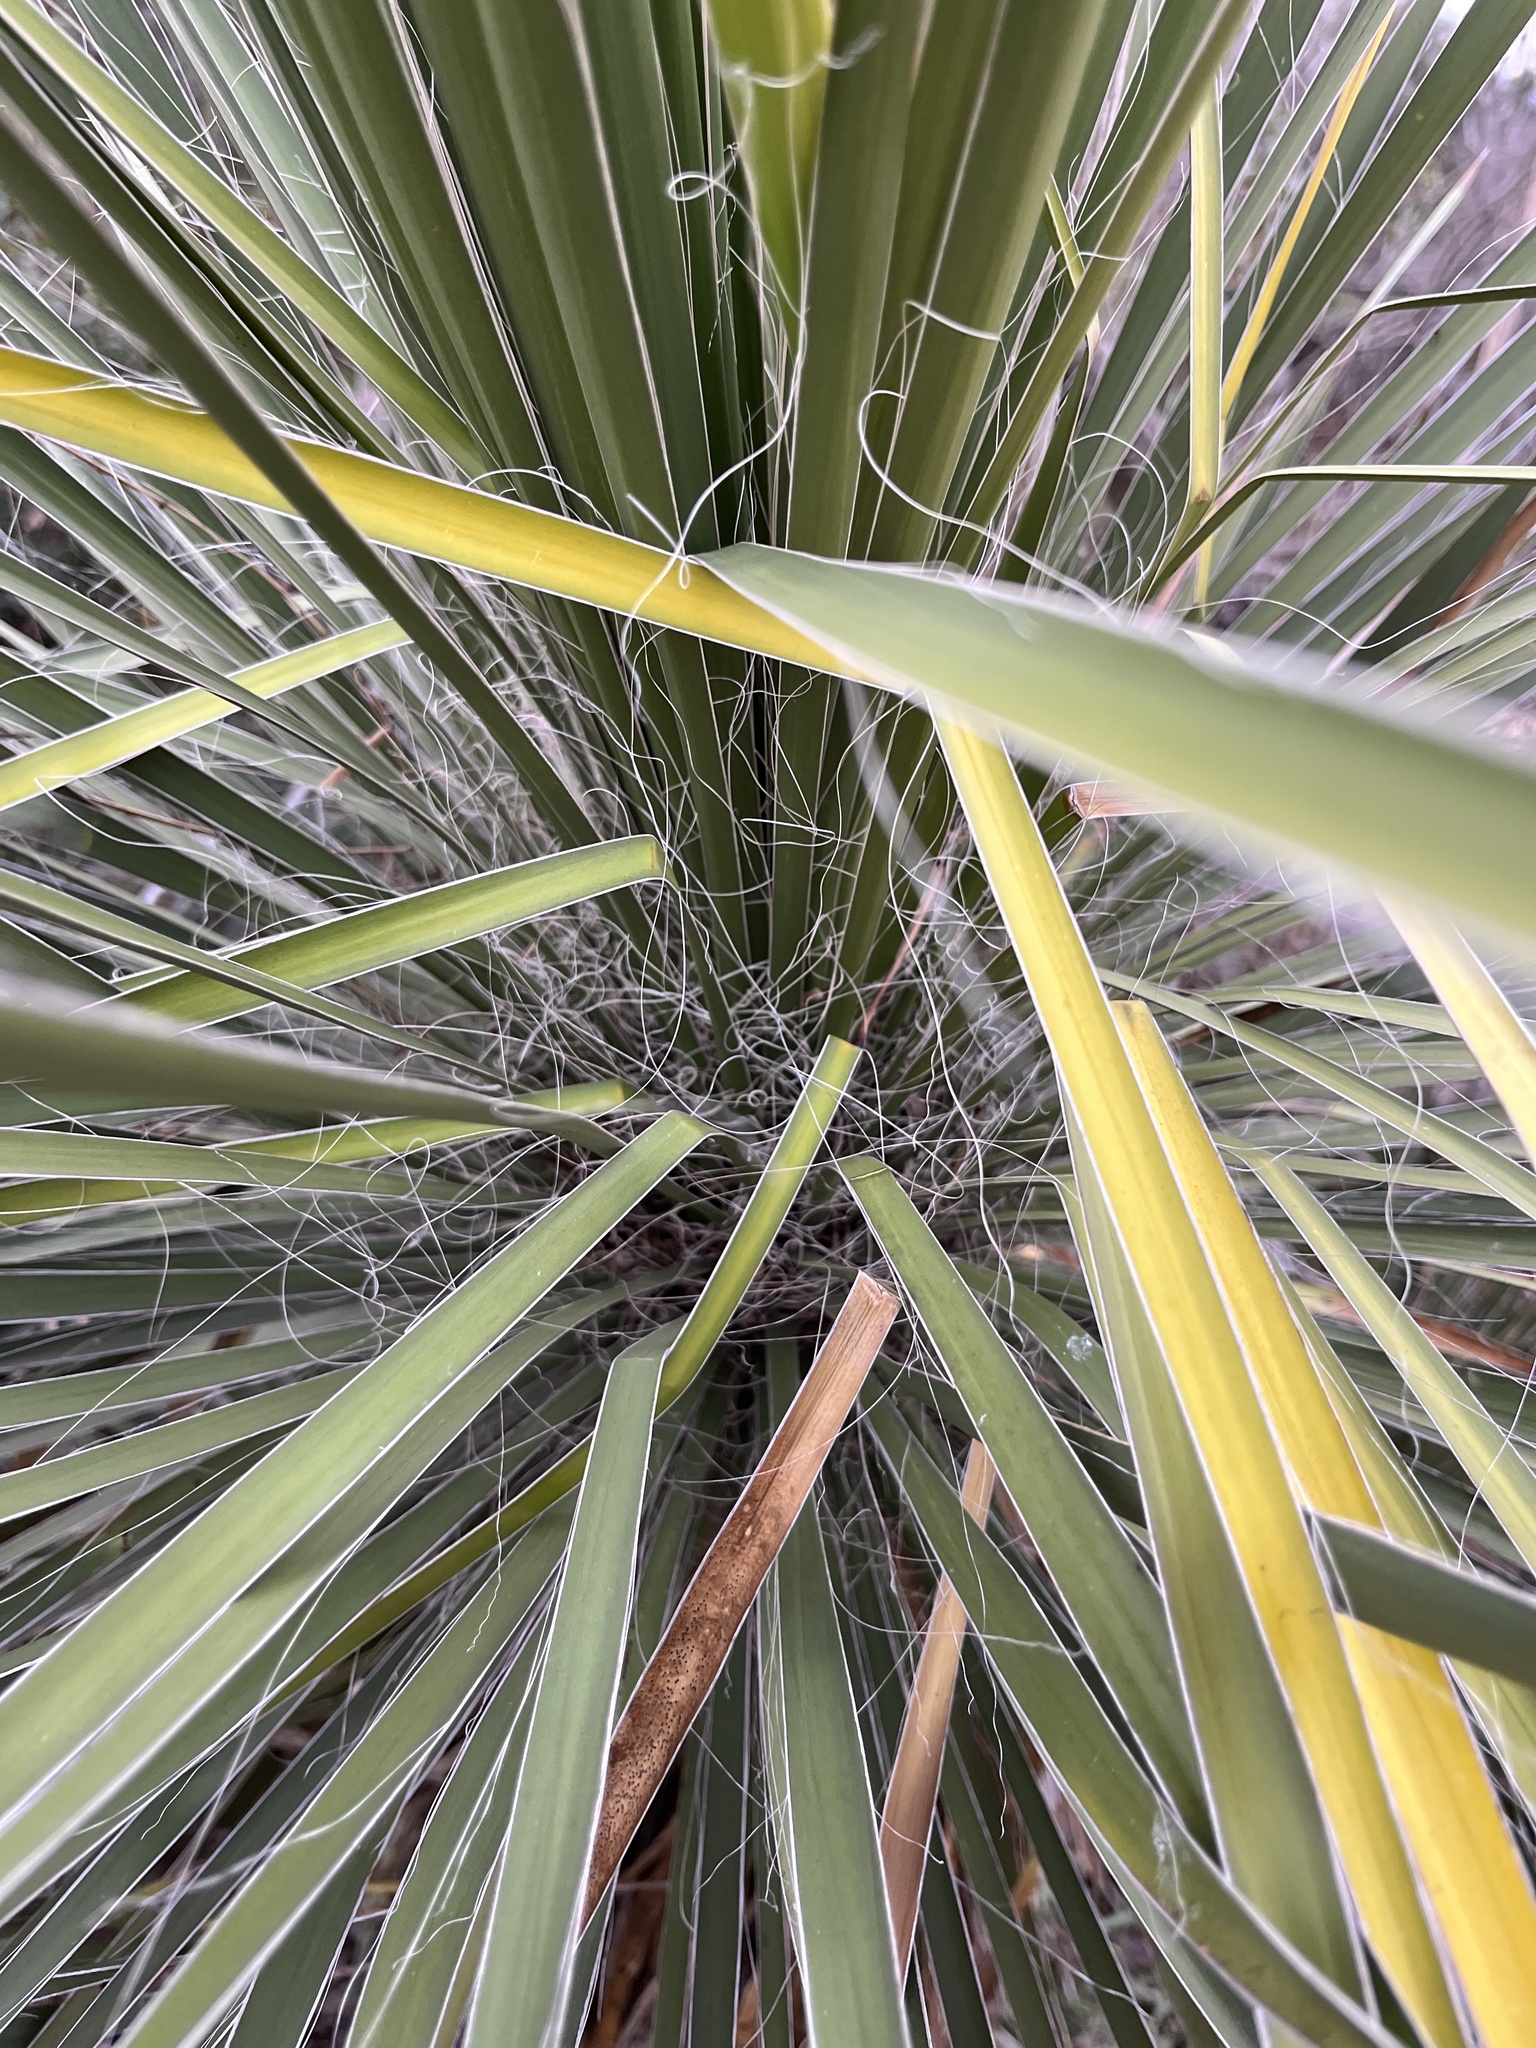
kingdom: Plantae
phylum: Tracheophyta
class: Liliopsida
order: Asparagales
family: Asparagaceae
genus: Yucca
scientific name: Yucca constricta
